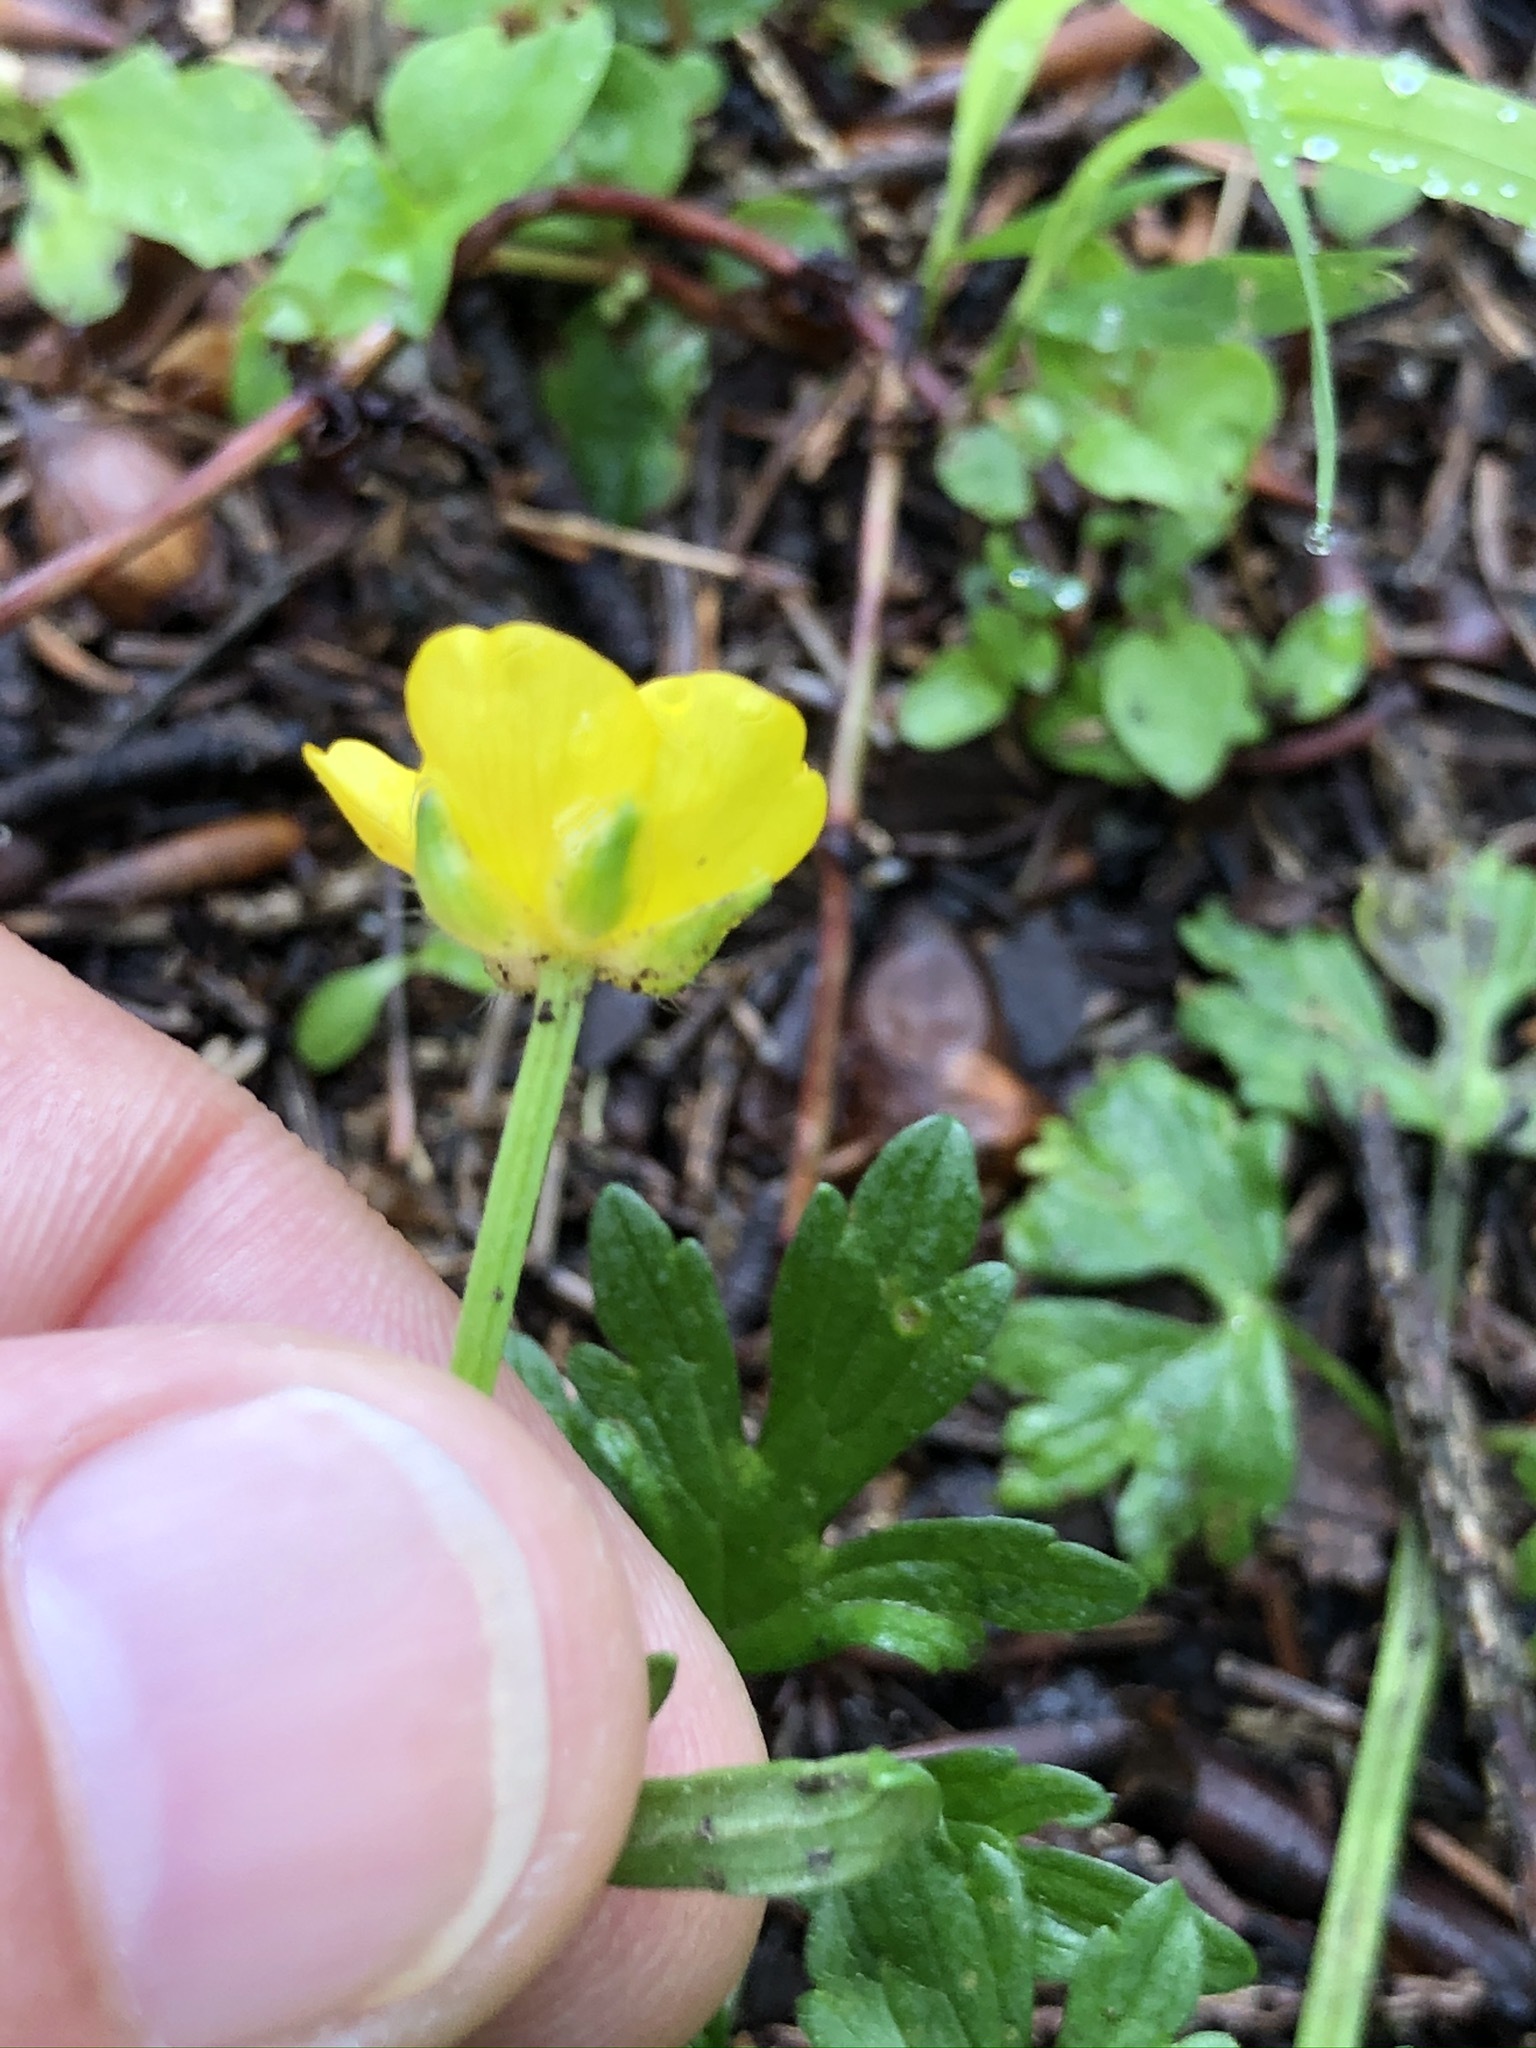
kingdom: Plantae
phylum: Tracheophyta
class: Magnoliopsida
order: Ranunculales
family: Ranunculaceae
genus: Ranunculus
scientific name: Ranunculus repens
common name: Creeping buttercup
